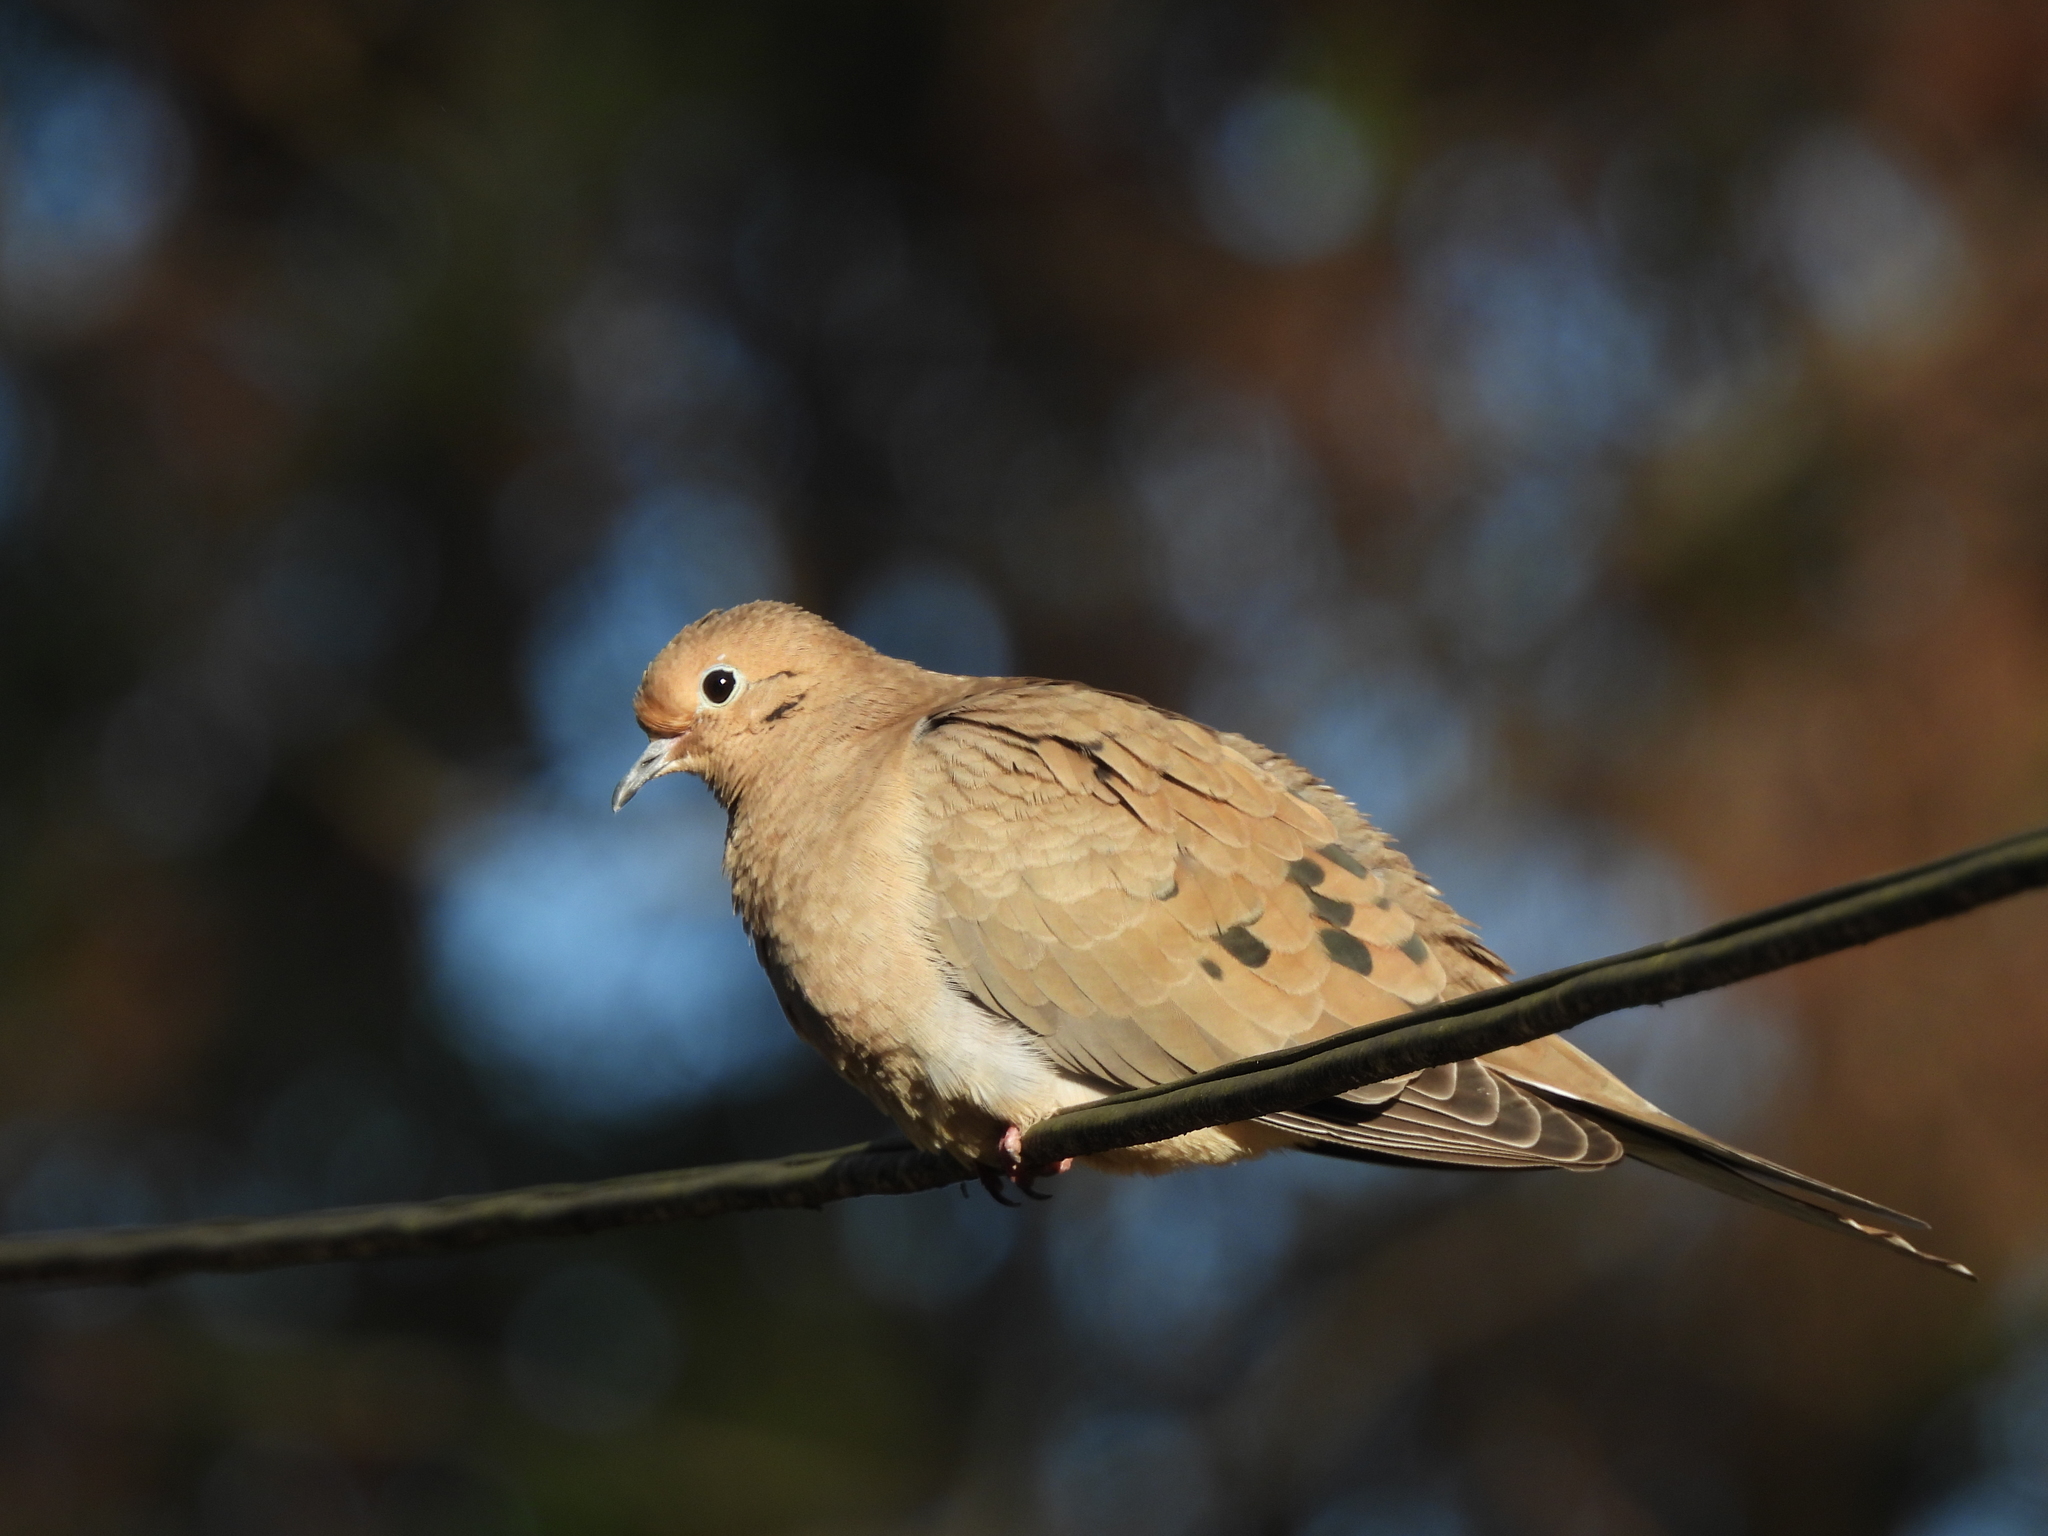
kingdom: Animalia
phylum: Chordata
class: Aves
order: Columbiformes
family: Columbidae
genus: Zenaida
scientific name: Zenaida macroura
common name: Mourning dove
